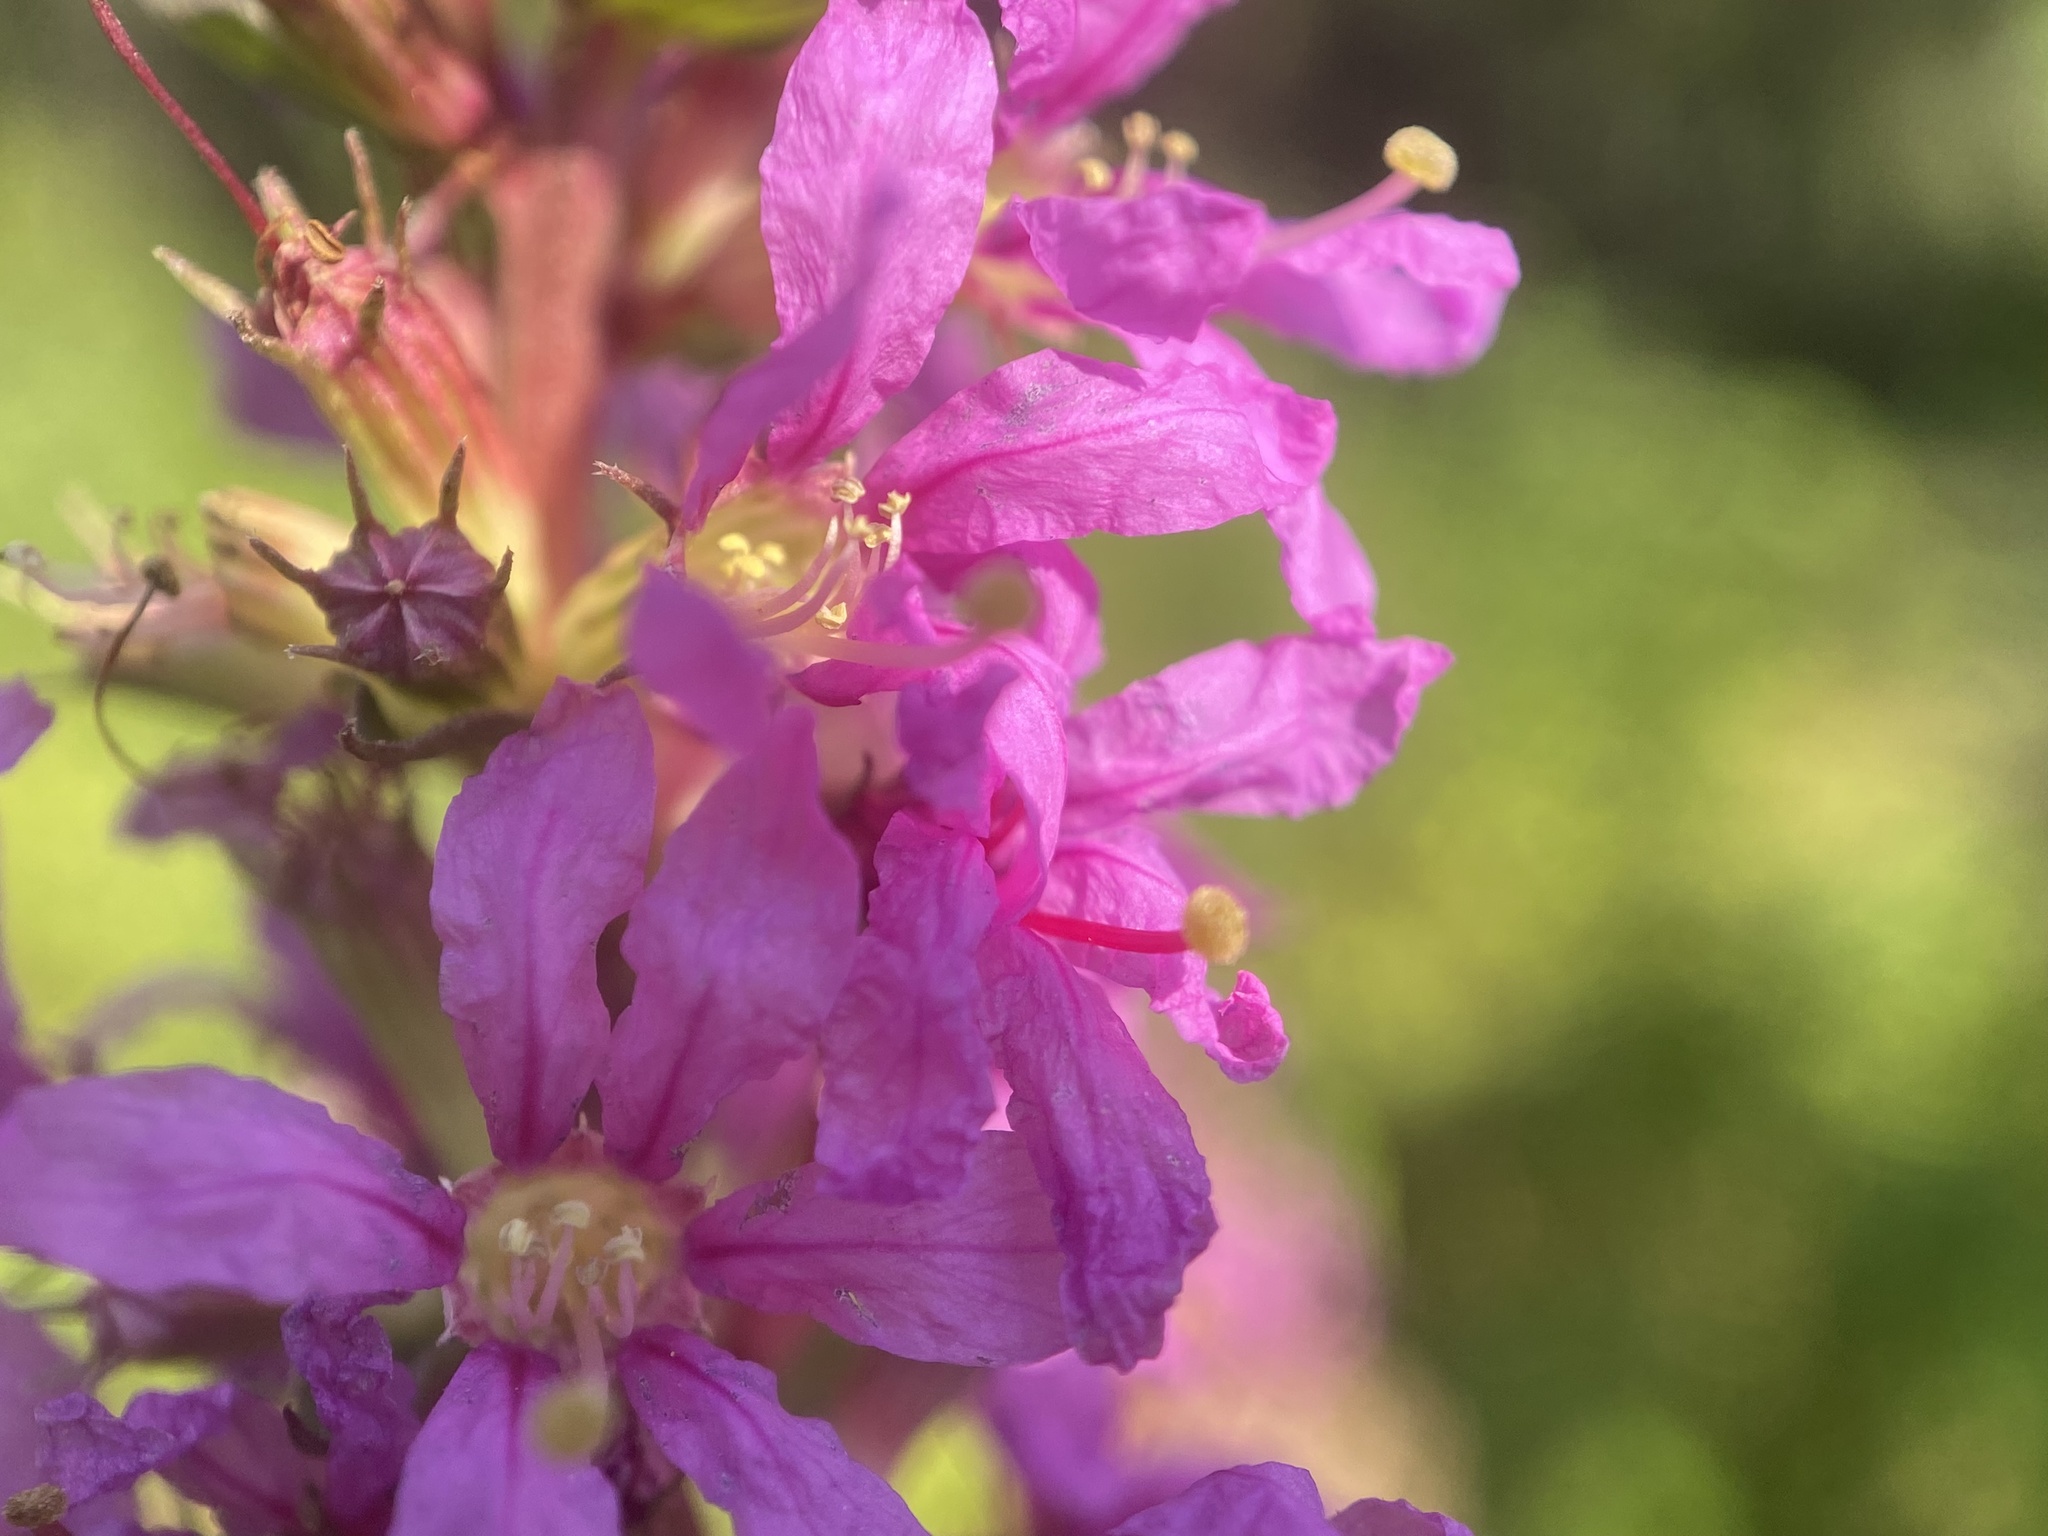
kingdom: Plantae
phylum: Tracheophyta
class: Magnoliopsida
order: Myrtales
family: Lythraceae
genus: Lythrum
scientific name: Lythrum salicaria
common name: Purple loosestrife
